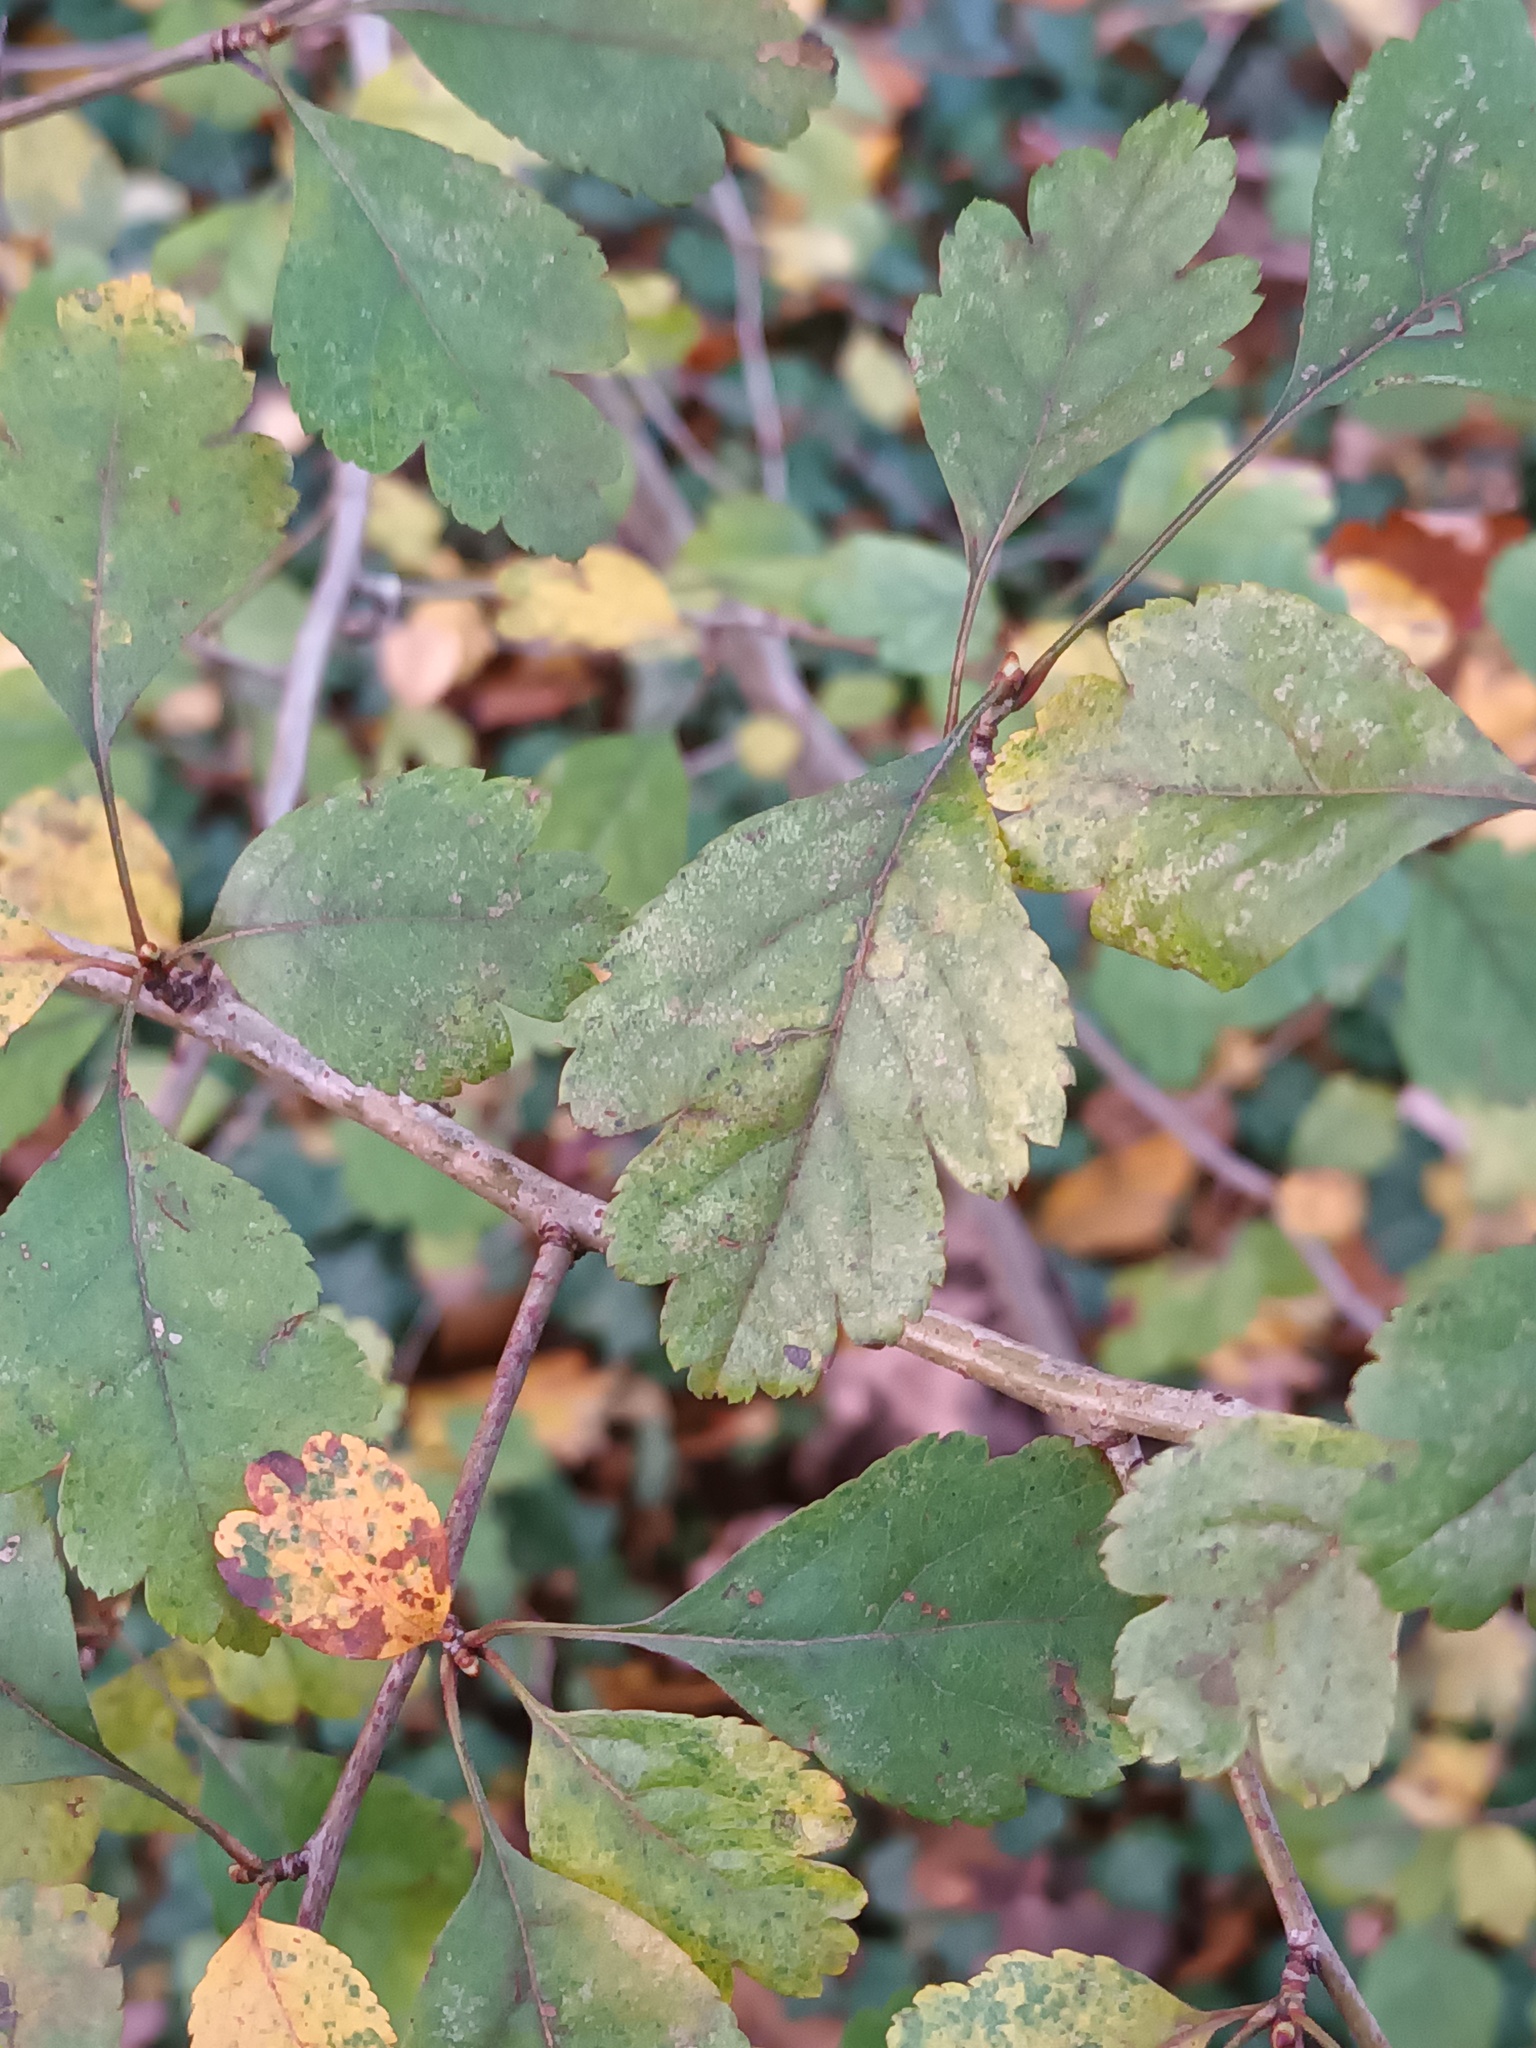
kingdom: Plantae
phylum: Tracheophyta
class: Magnoliopsida
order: Rosales
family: Rosaceae
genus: Crataegus
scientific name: Crataegus laevigata
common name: Midland hawthorn
